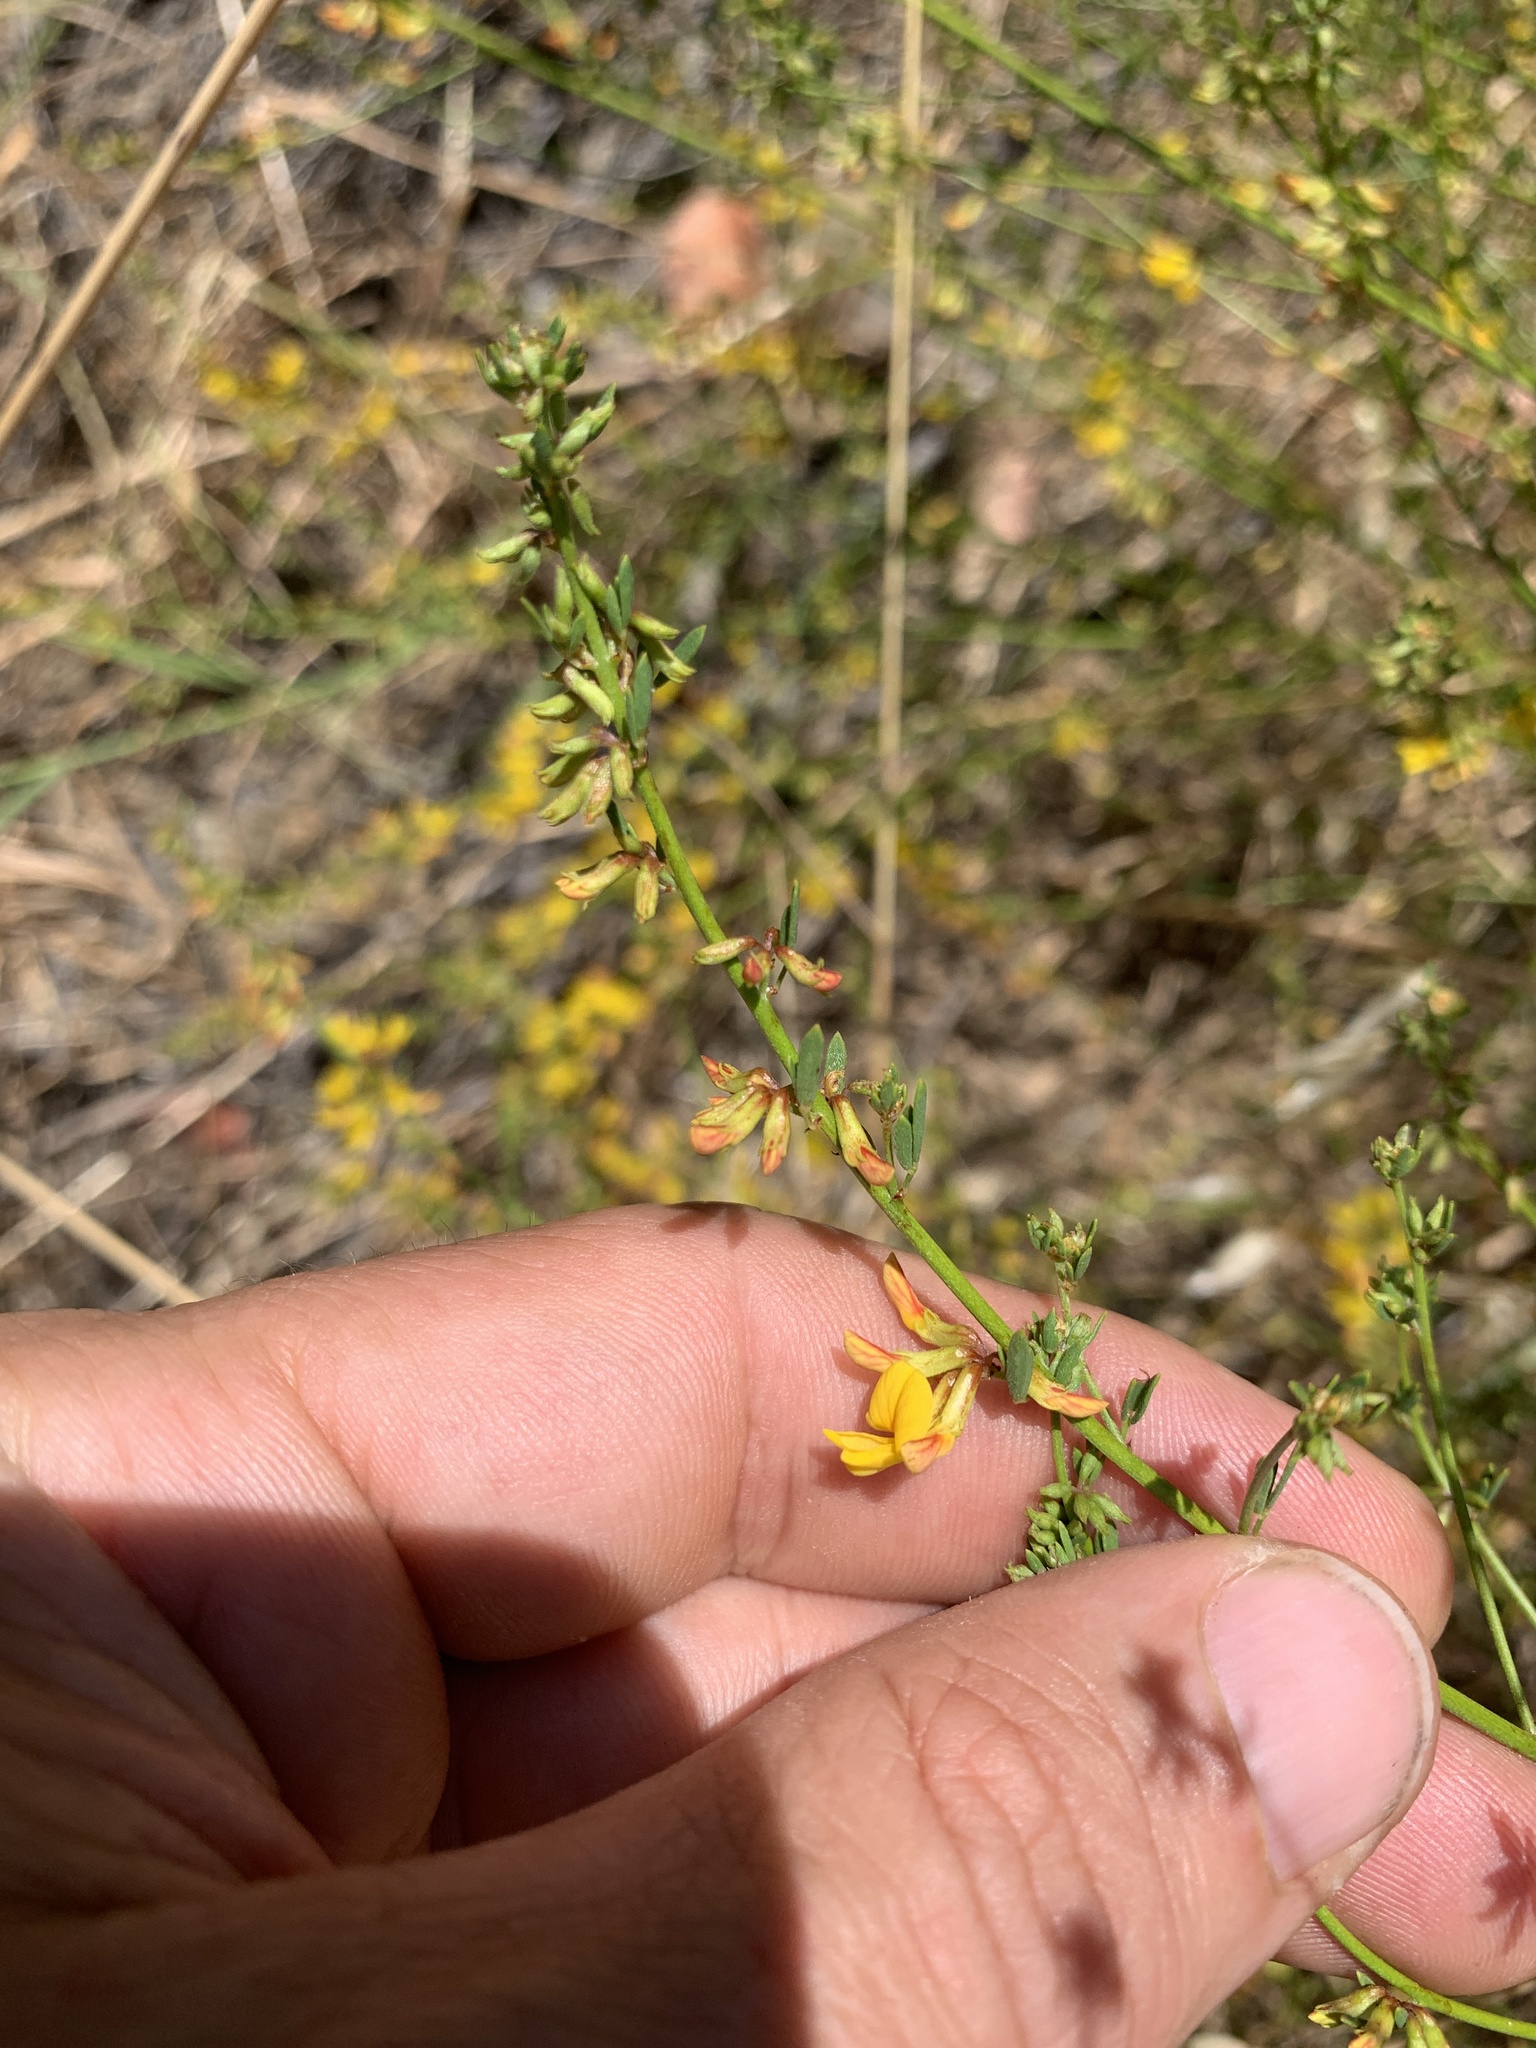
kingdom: Plantae
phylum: Tracheophyta
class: Magnoliopsida
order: Fabales
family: Fabaceae
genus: Acmispon
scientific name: Acmispon glaber
